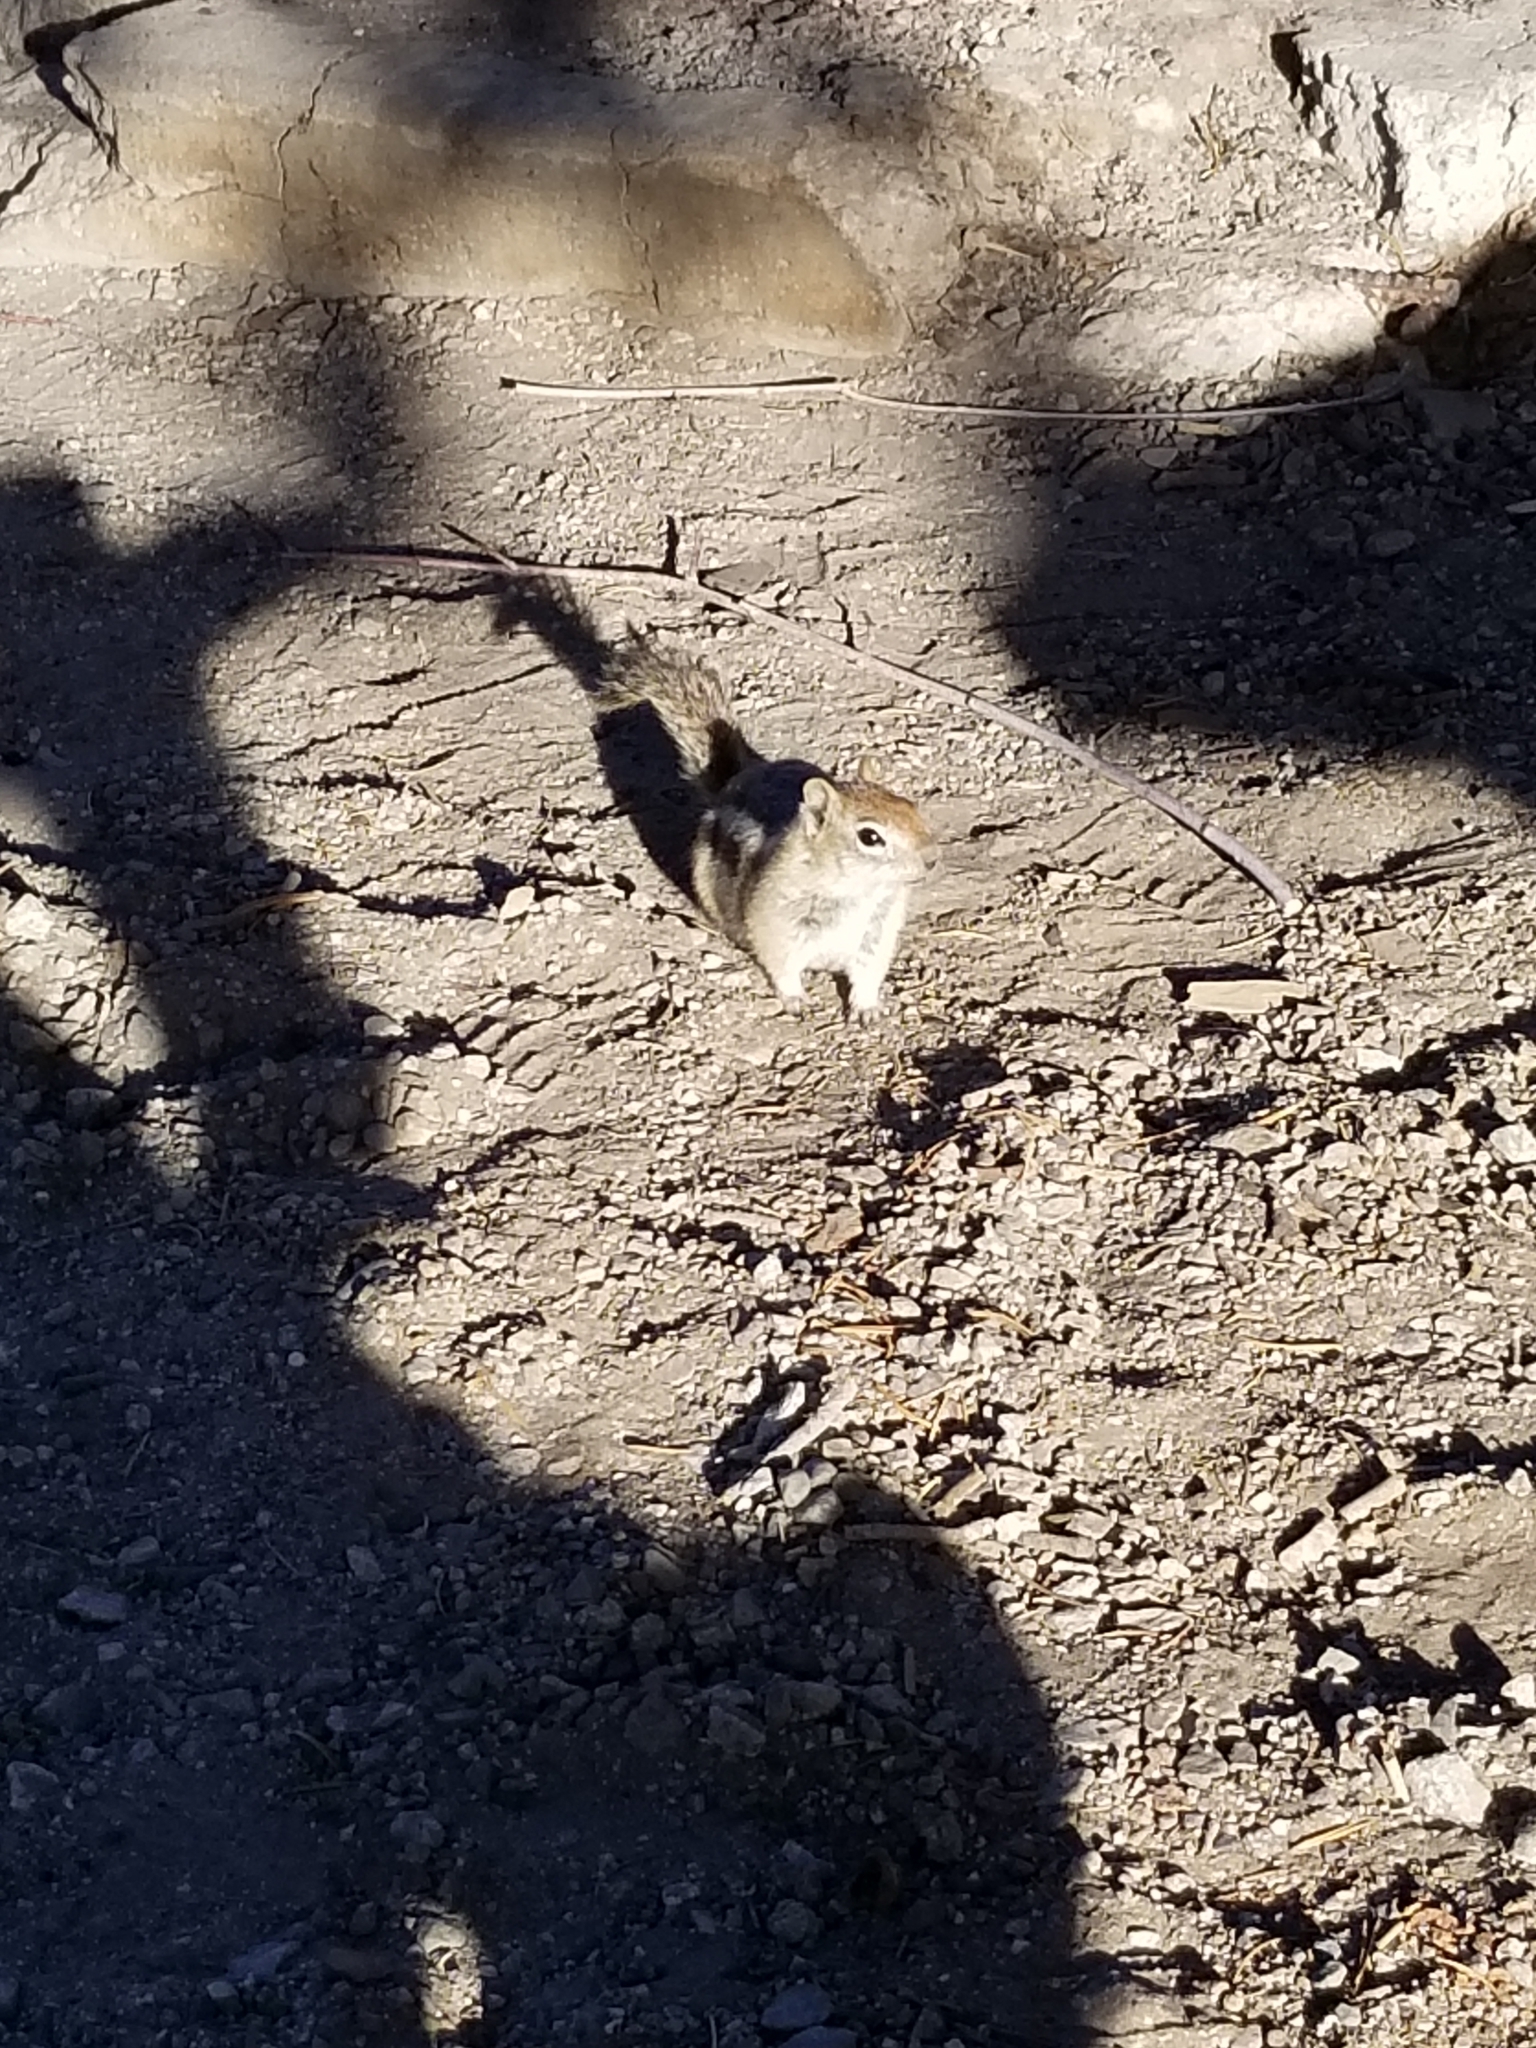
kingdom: Animalia
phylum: Chordata
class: Mammalia
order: Rodentia
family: Sciuridae
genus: Callospermophilus
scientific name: Callospermophilus lateralis
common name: Golden-mantled ground squirrel
